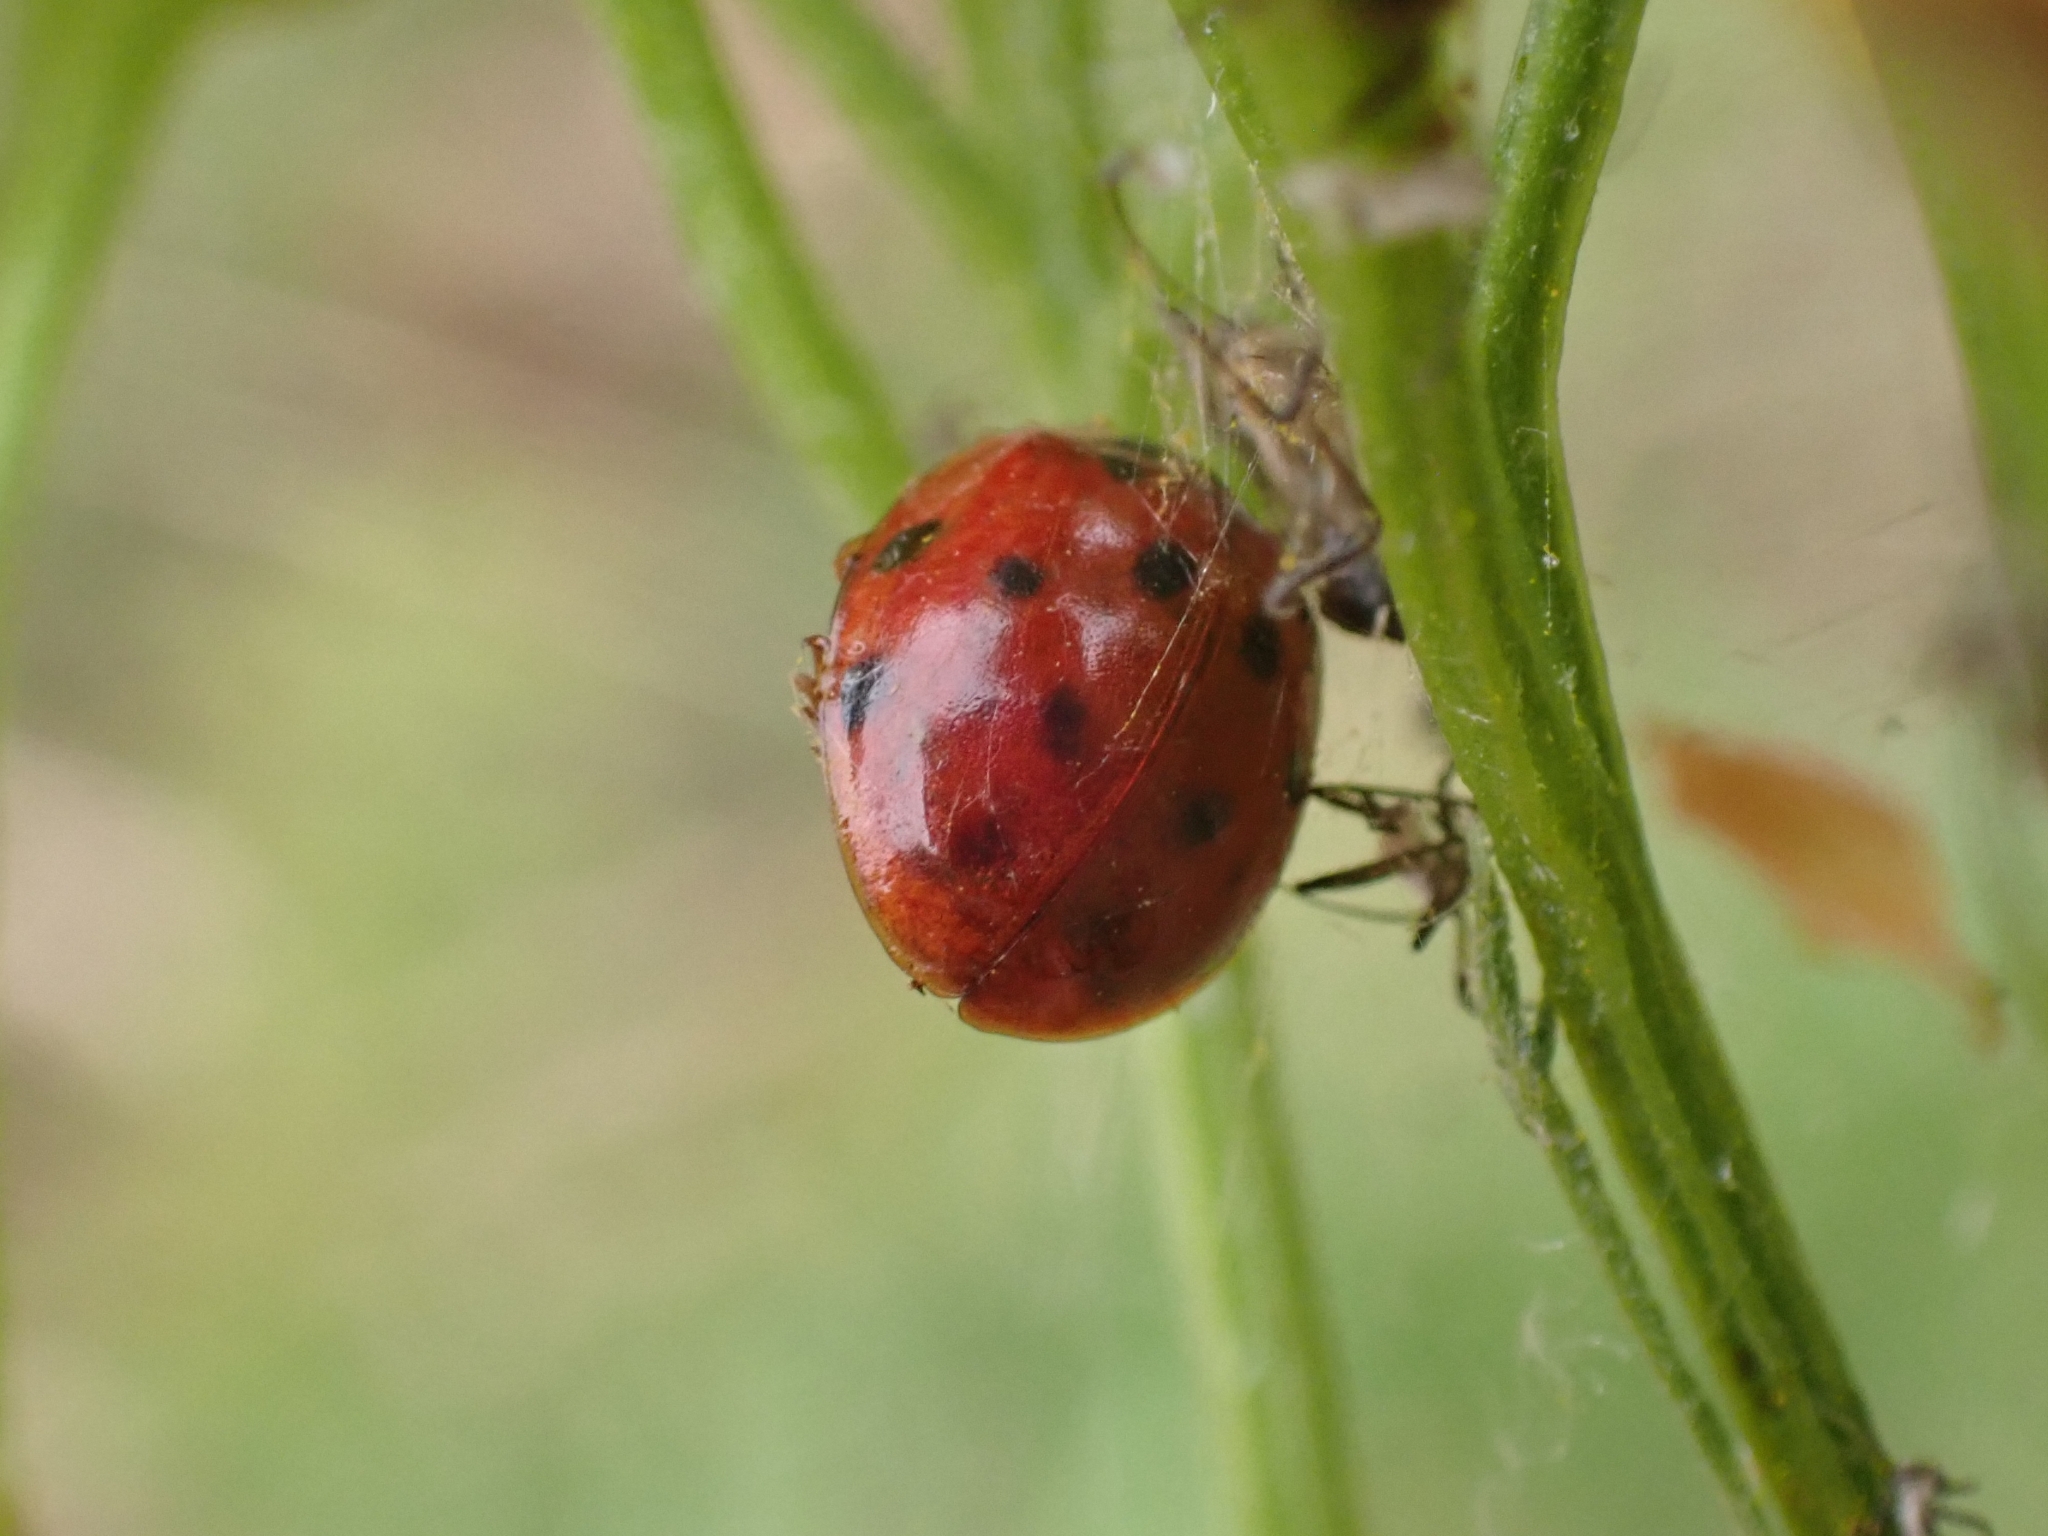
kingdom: Animalia
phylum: Arthropoda
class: Insecta
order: Coleoptera
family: Coccinellidae
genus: Harmonia
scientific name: Harmonia axyridis
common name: Harlequin ladybird
